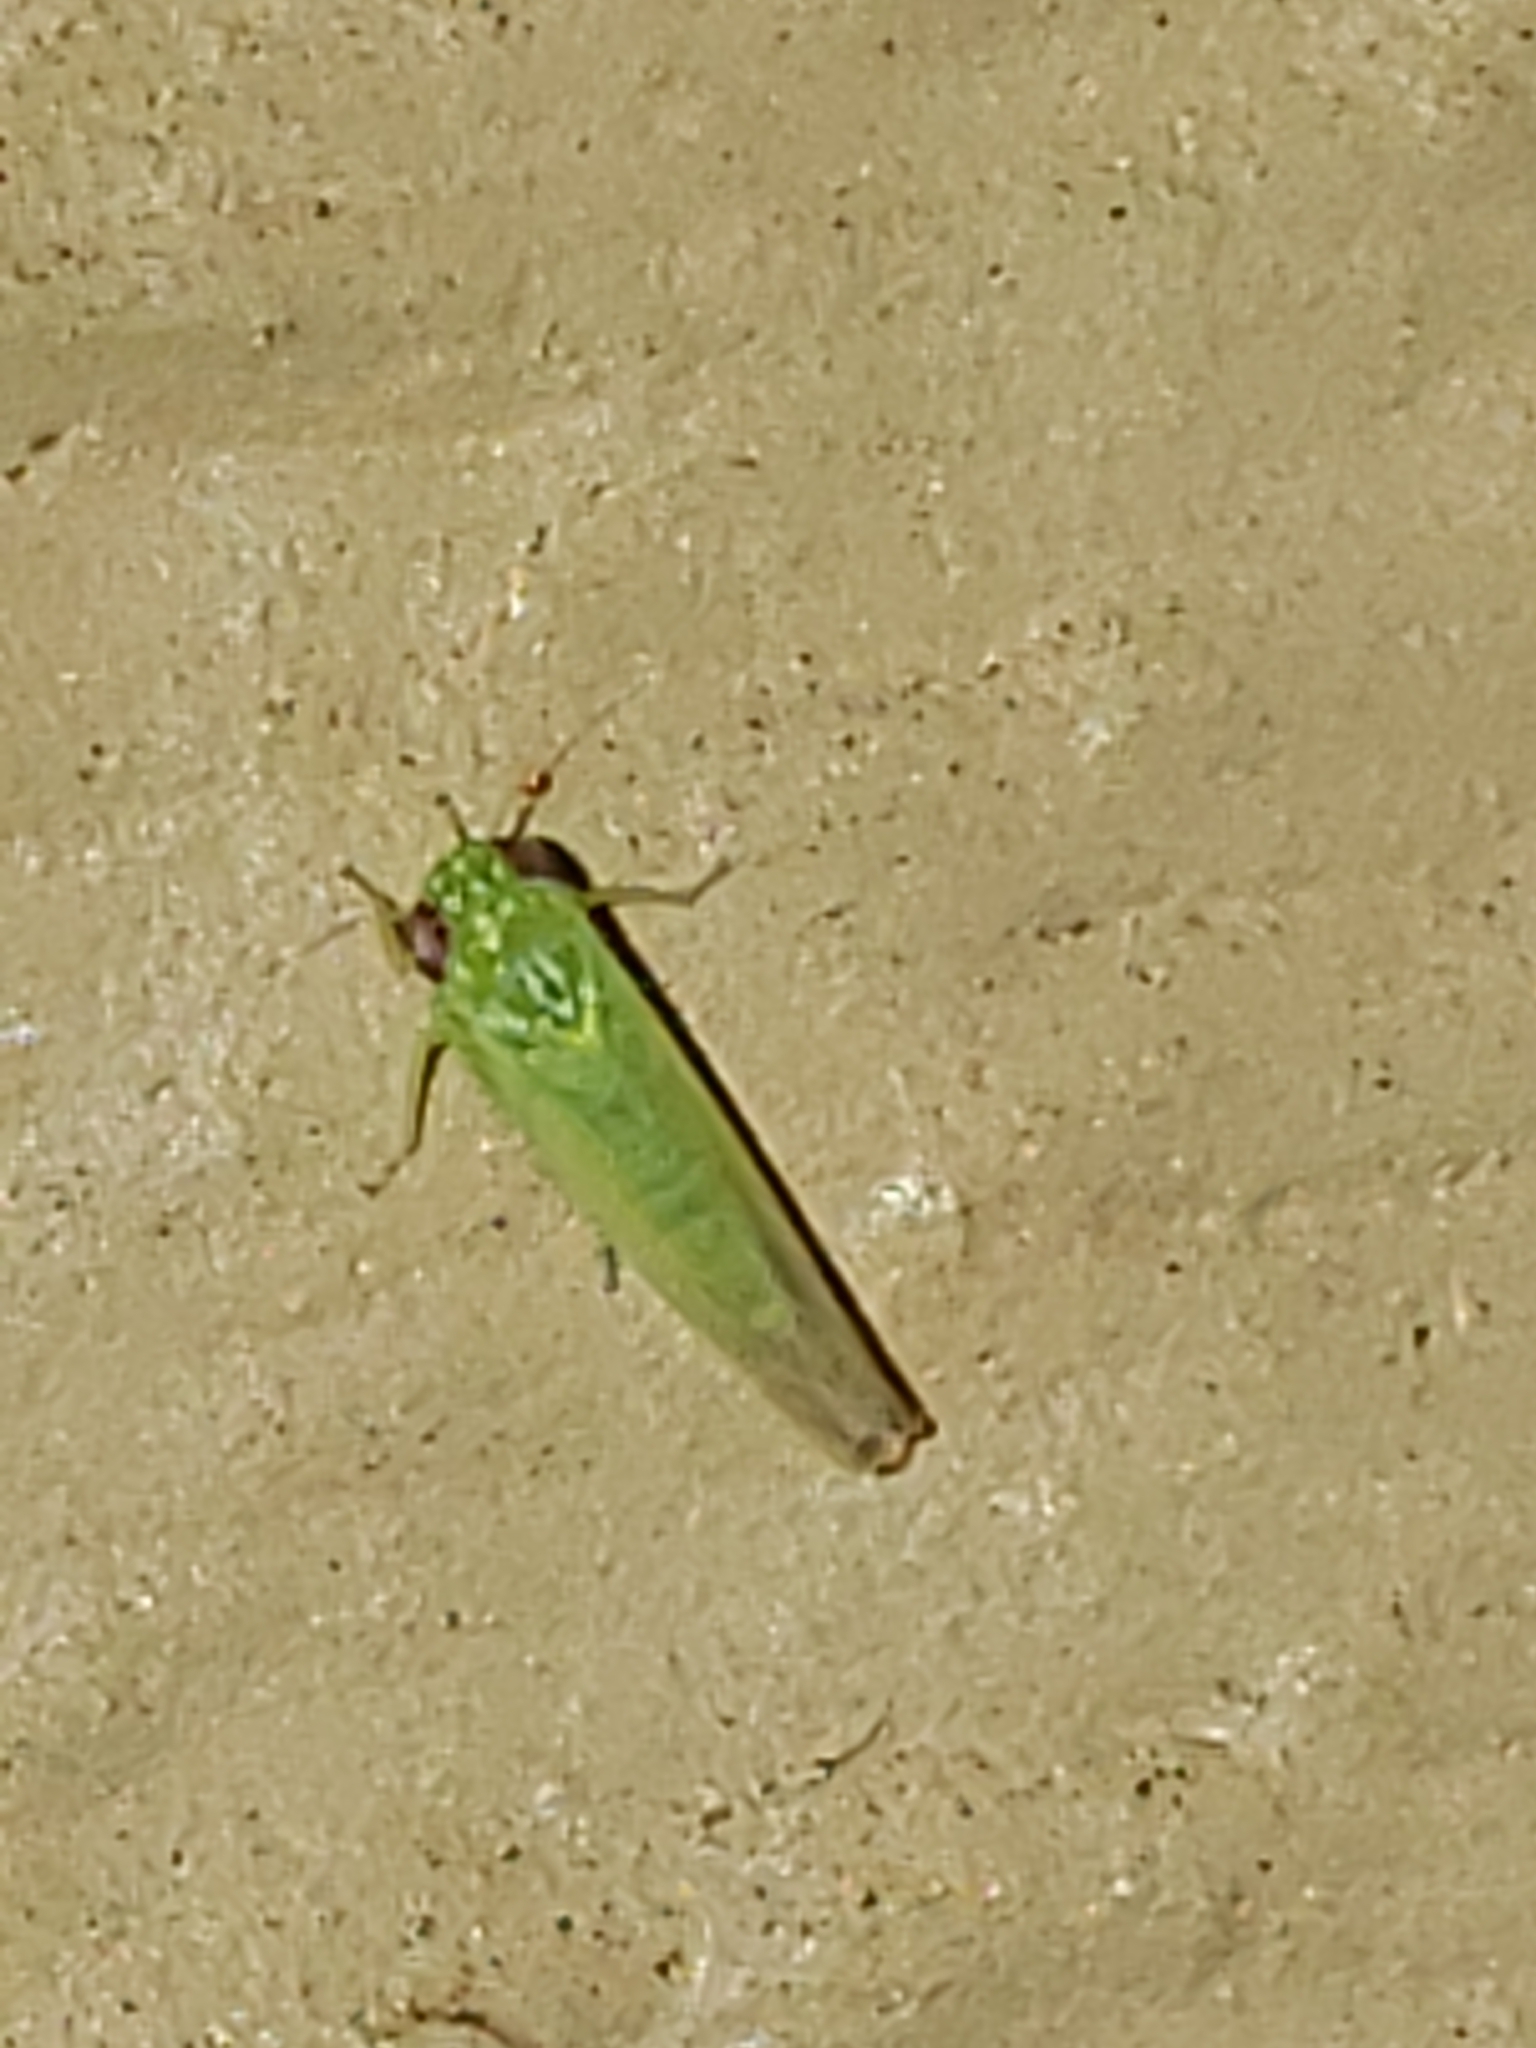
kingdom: Animalia
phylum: Arthropoda
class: Insecta
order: Hemiptera
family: Cicadellidae
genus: Empoasca
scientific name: Empoasca fabae
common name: Potato leafhopper
